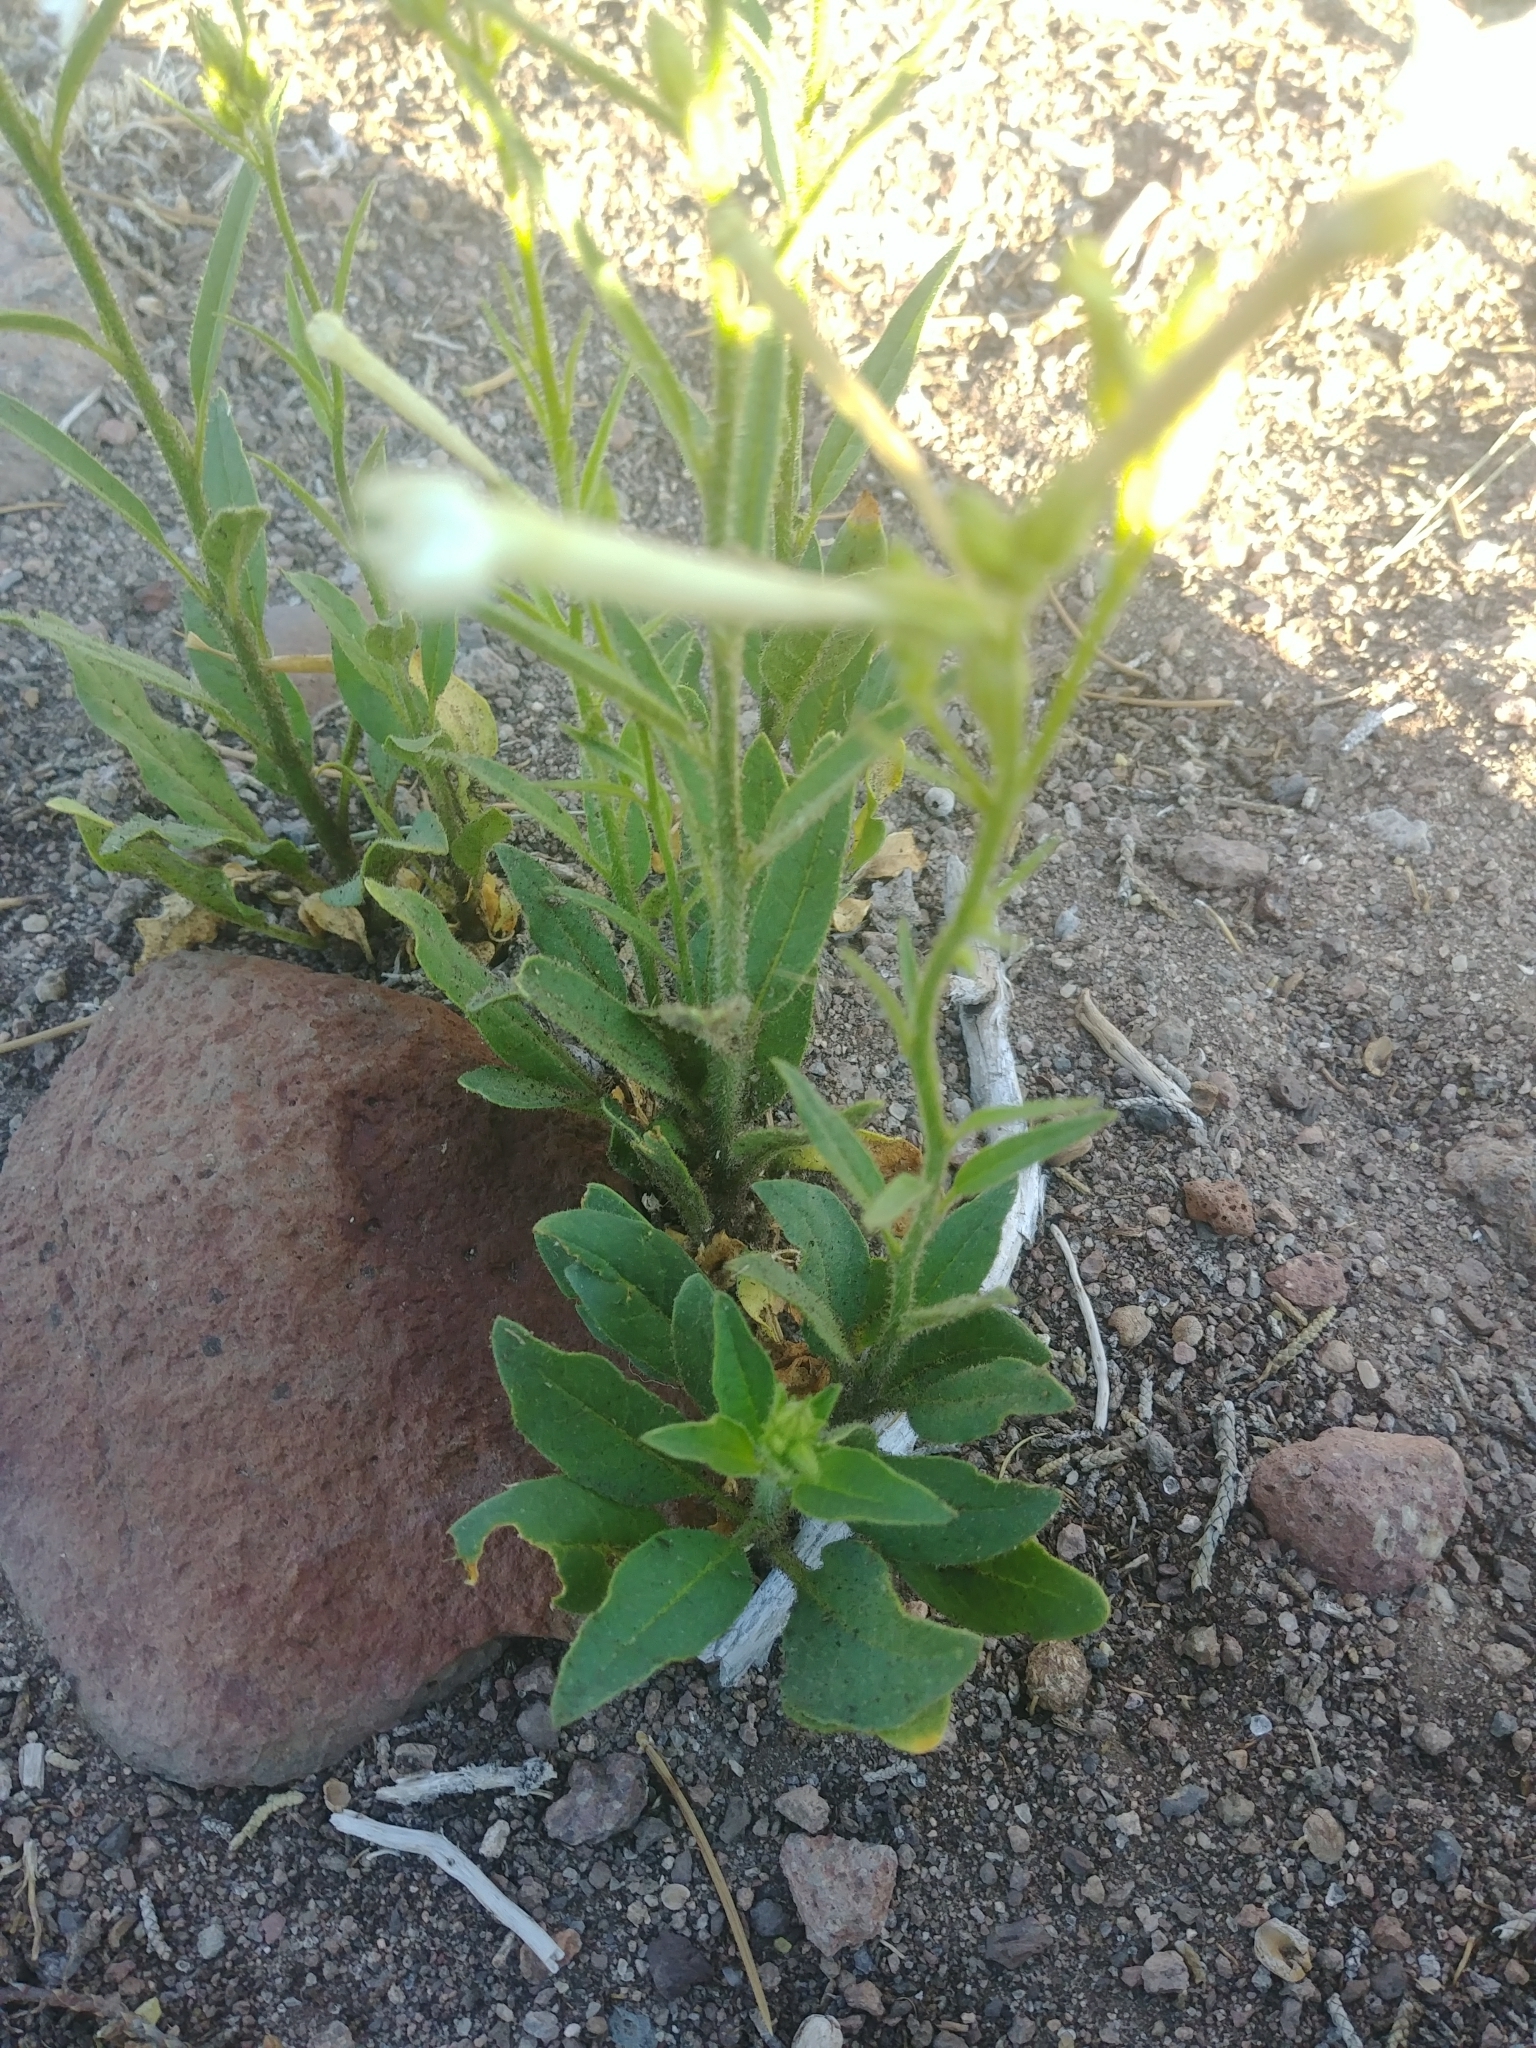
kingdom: Plantae
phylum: Tracheophyta
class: Magnoliopsida
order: Solanales
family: Solanaceae
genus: Nicotiana
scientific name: Nicotiana attenuata
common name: Coyote tobacco
